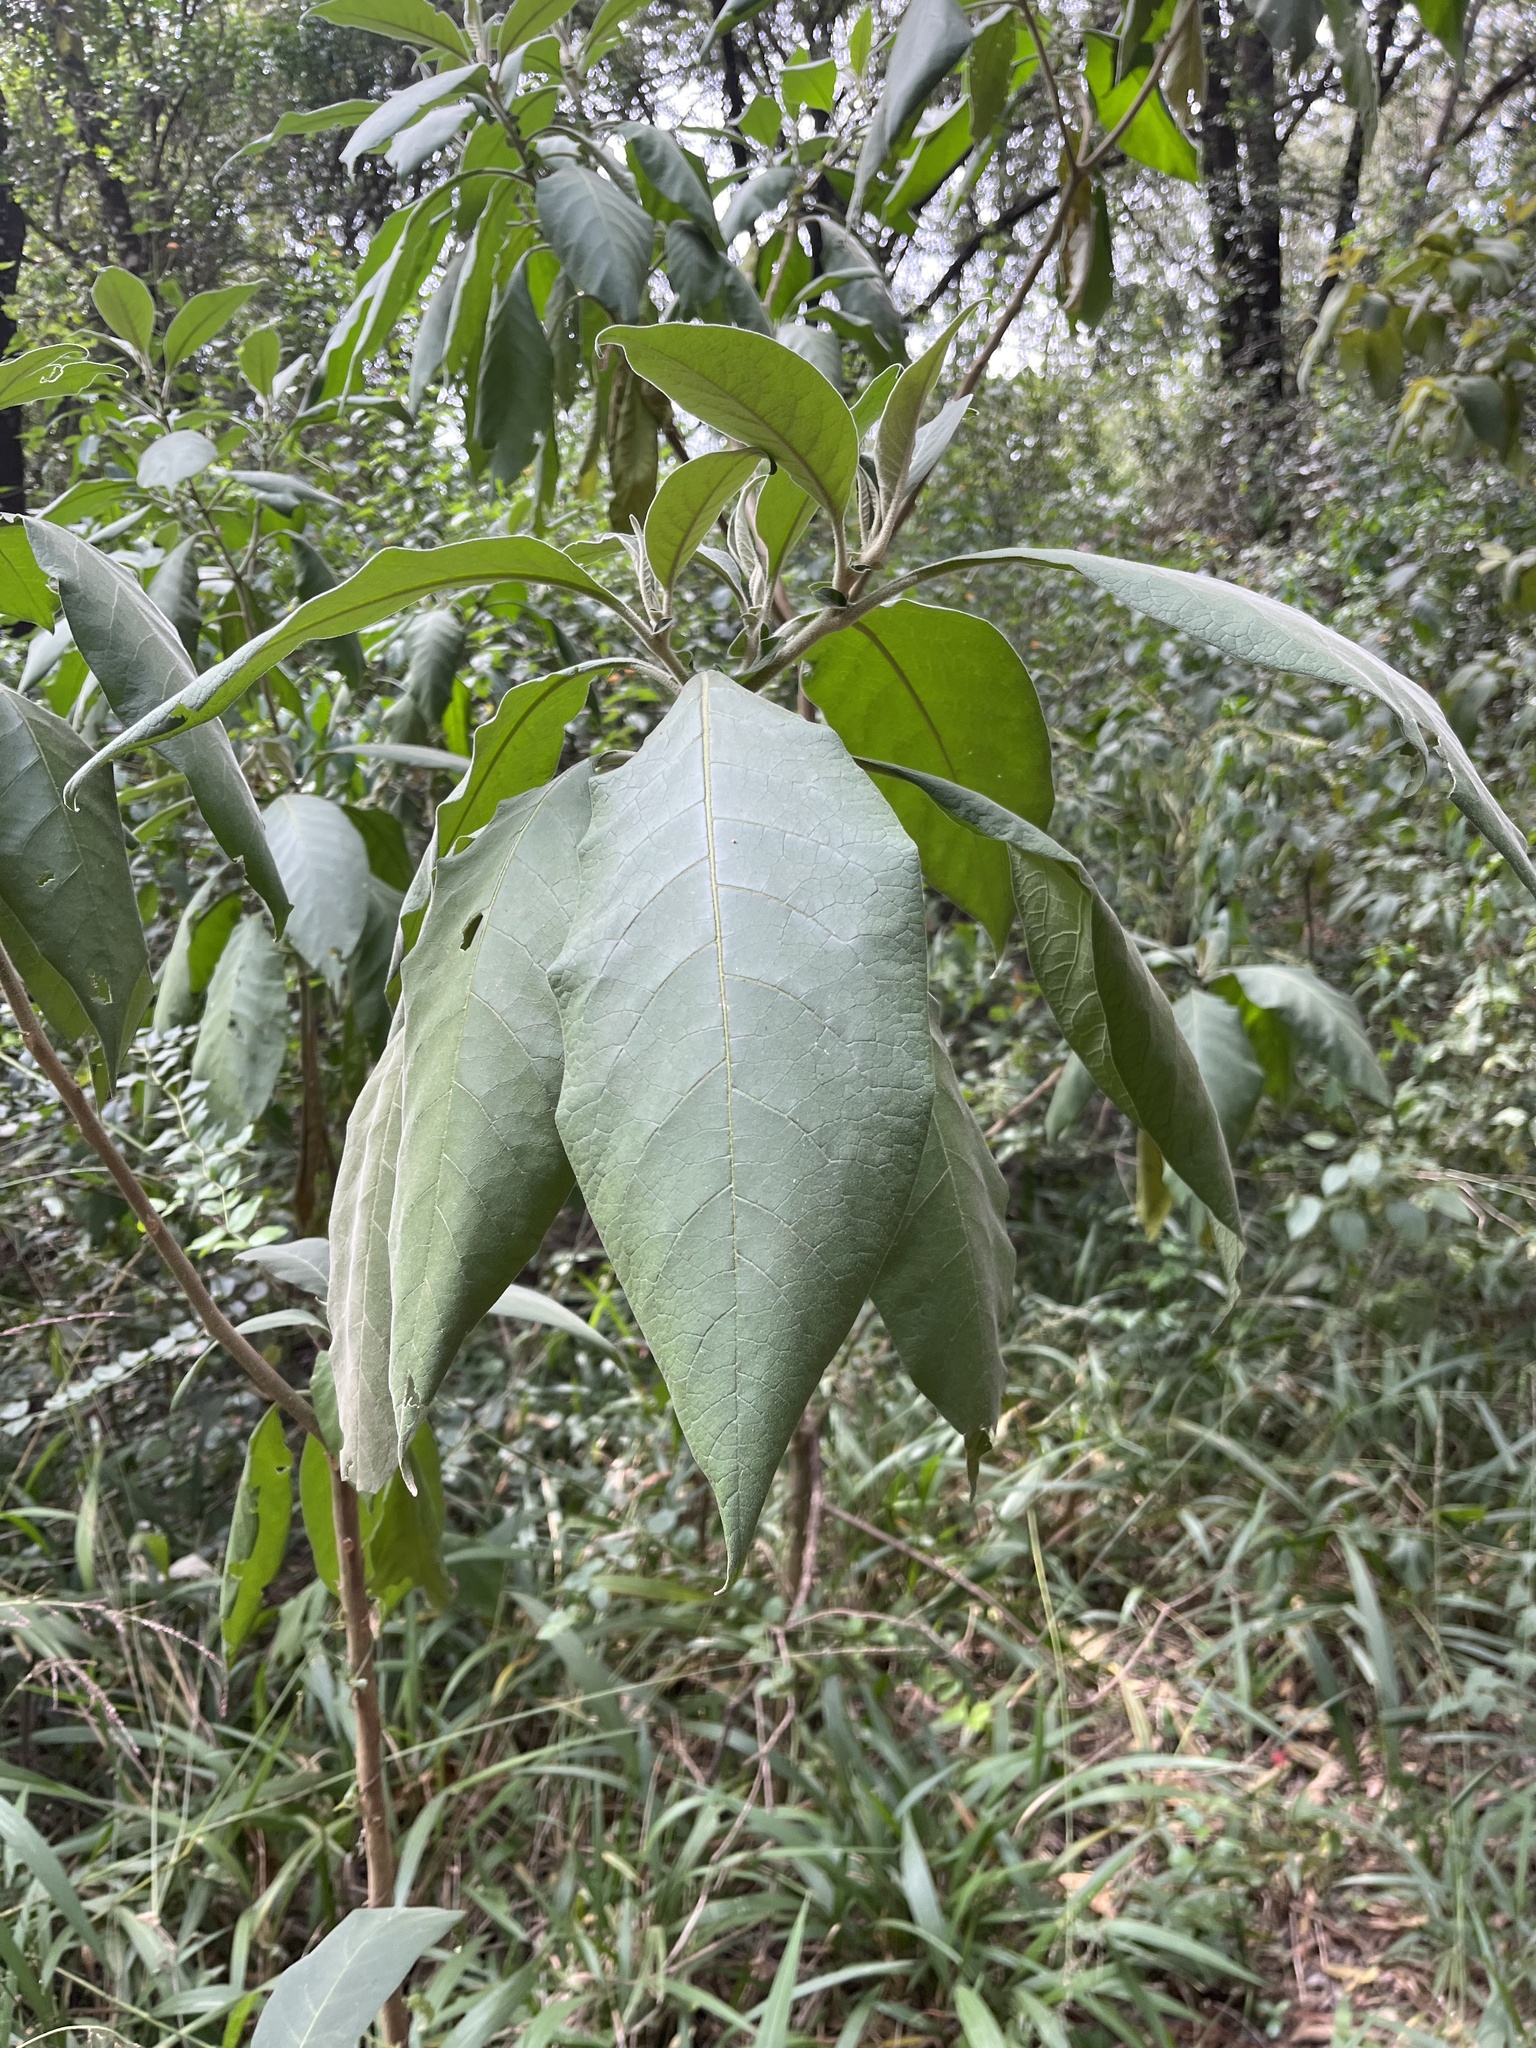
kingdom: Plantae
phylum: Tracheophyta
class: Magnoliopsida
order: Solanales
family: Solanaceae
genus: Solanum
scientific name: Solanum mauritianum
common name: Earleaf nightshade
